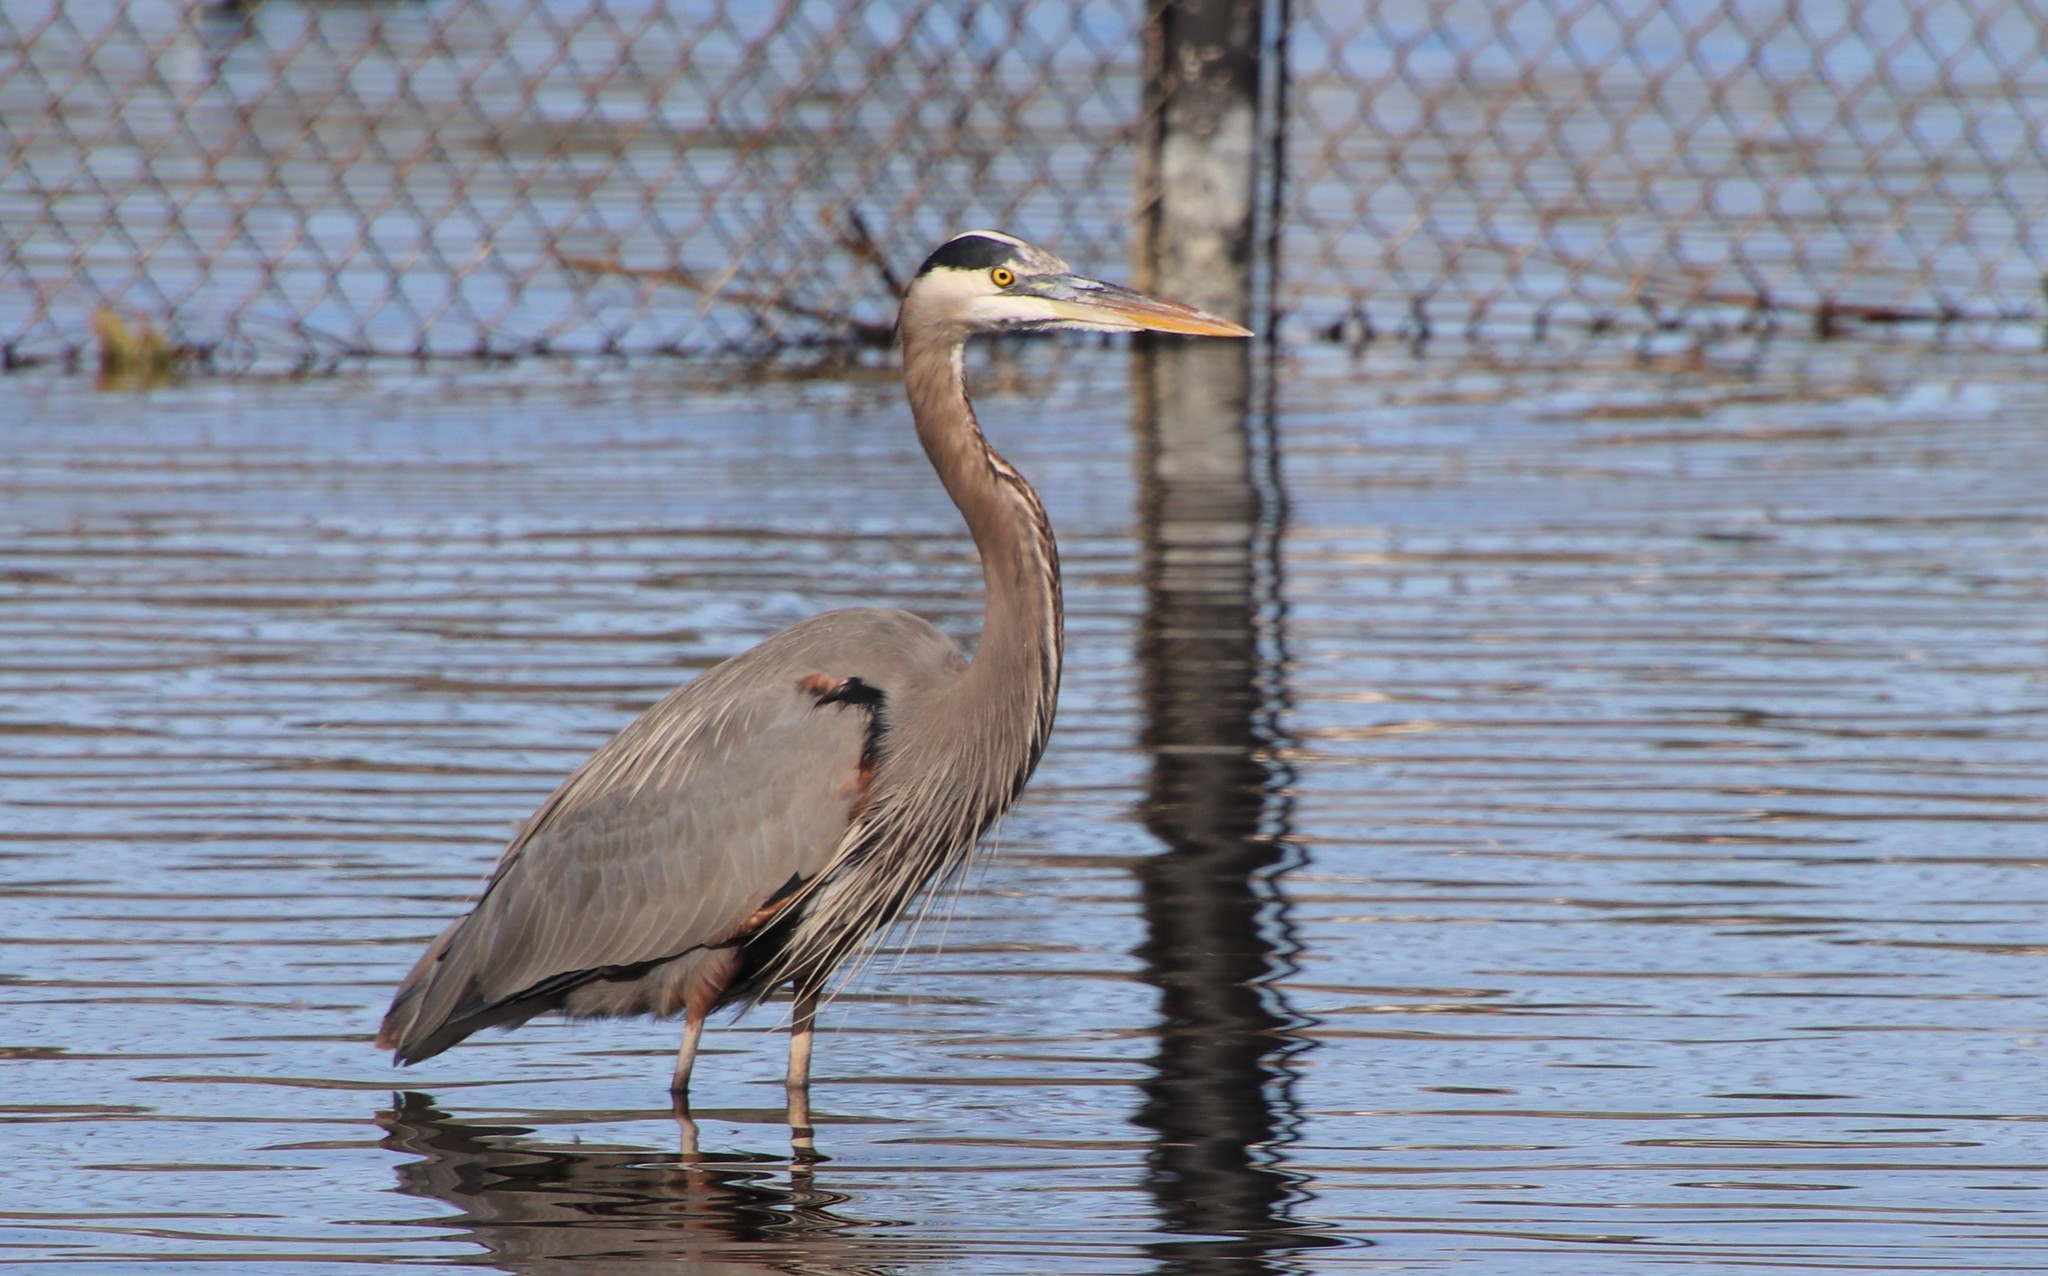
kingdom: Animalia
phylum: Chordata
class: Aves
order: Pelecaniformes
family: Ardeidae
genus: Ardea
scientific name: Ardea herodias
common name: Great blue heron
